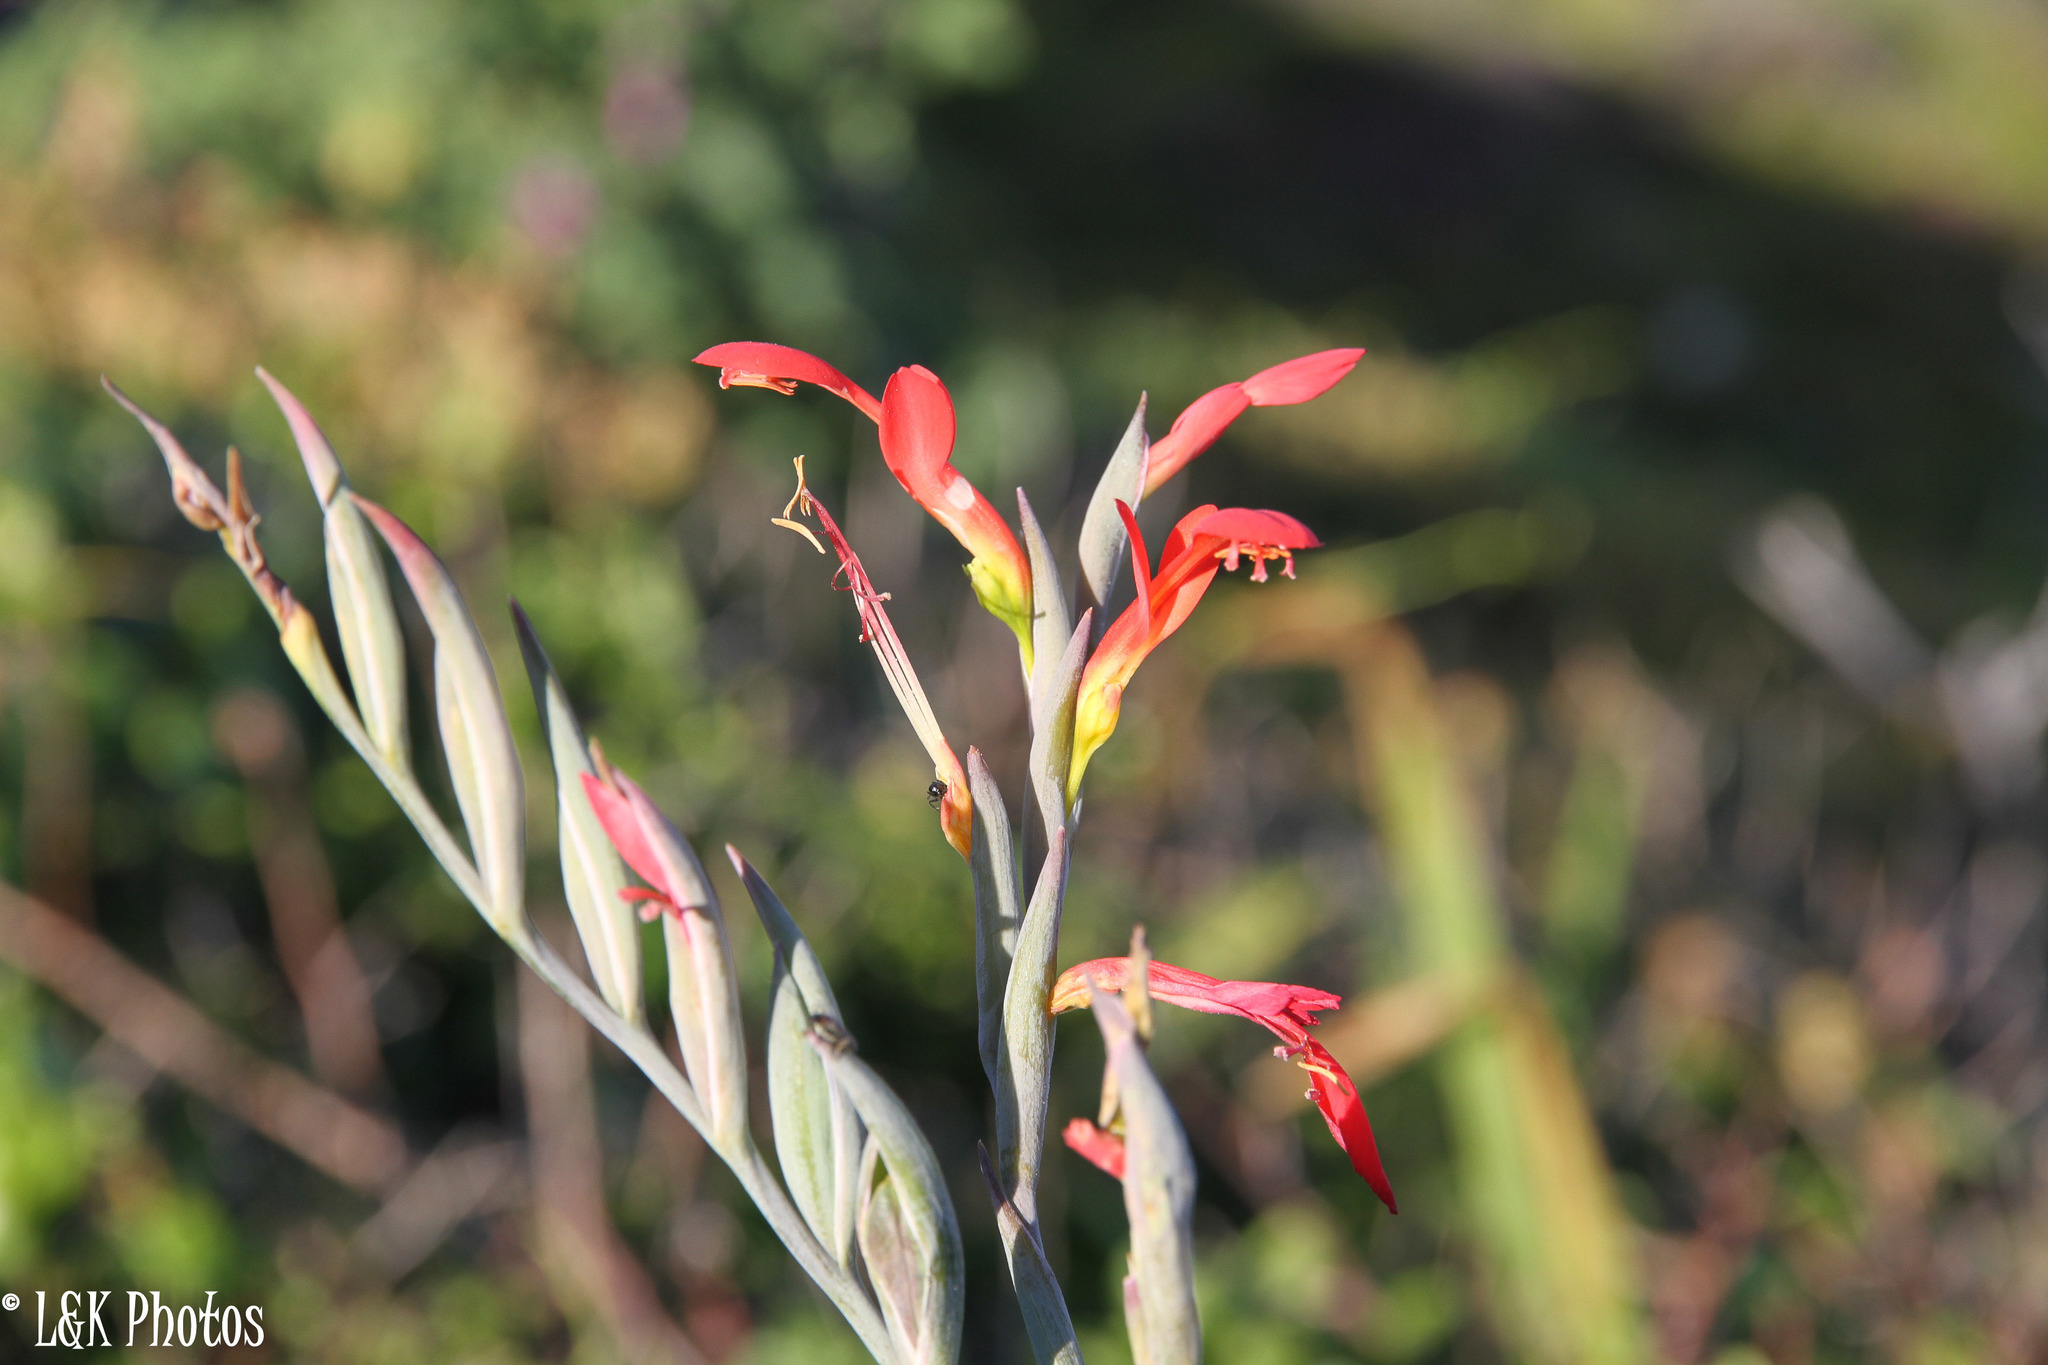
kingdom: Plantae
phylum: Tracheophyta
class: Liliopsida
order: Asparagales
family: Iridaceae
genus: Gladiolus
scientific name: Gladiolus cunonius
